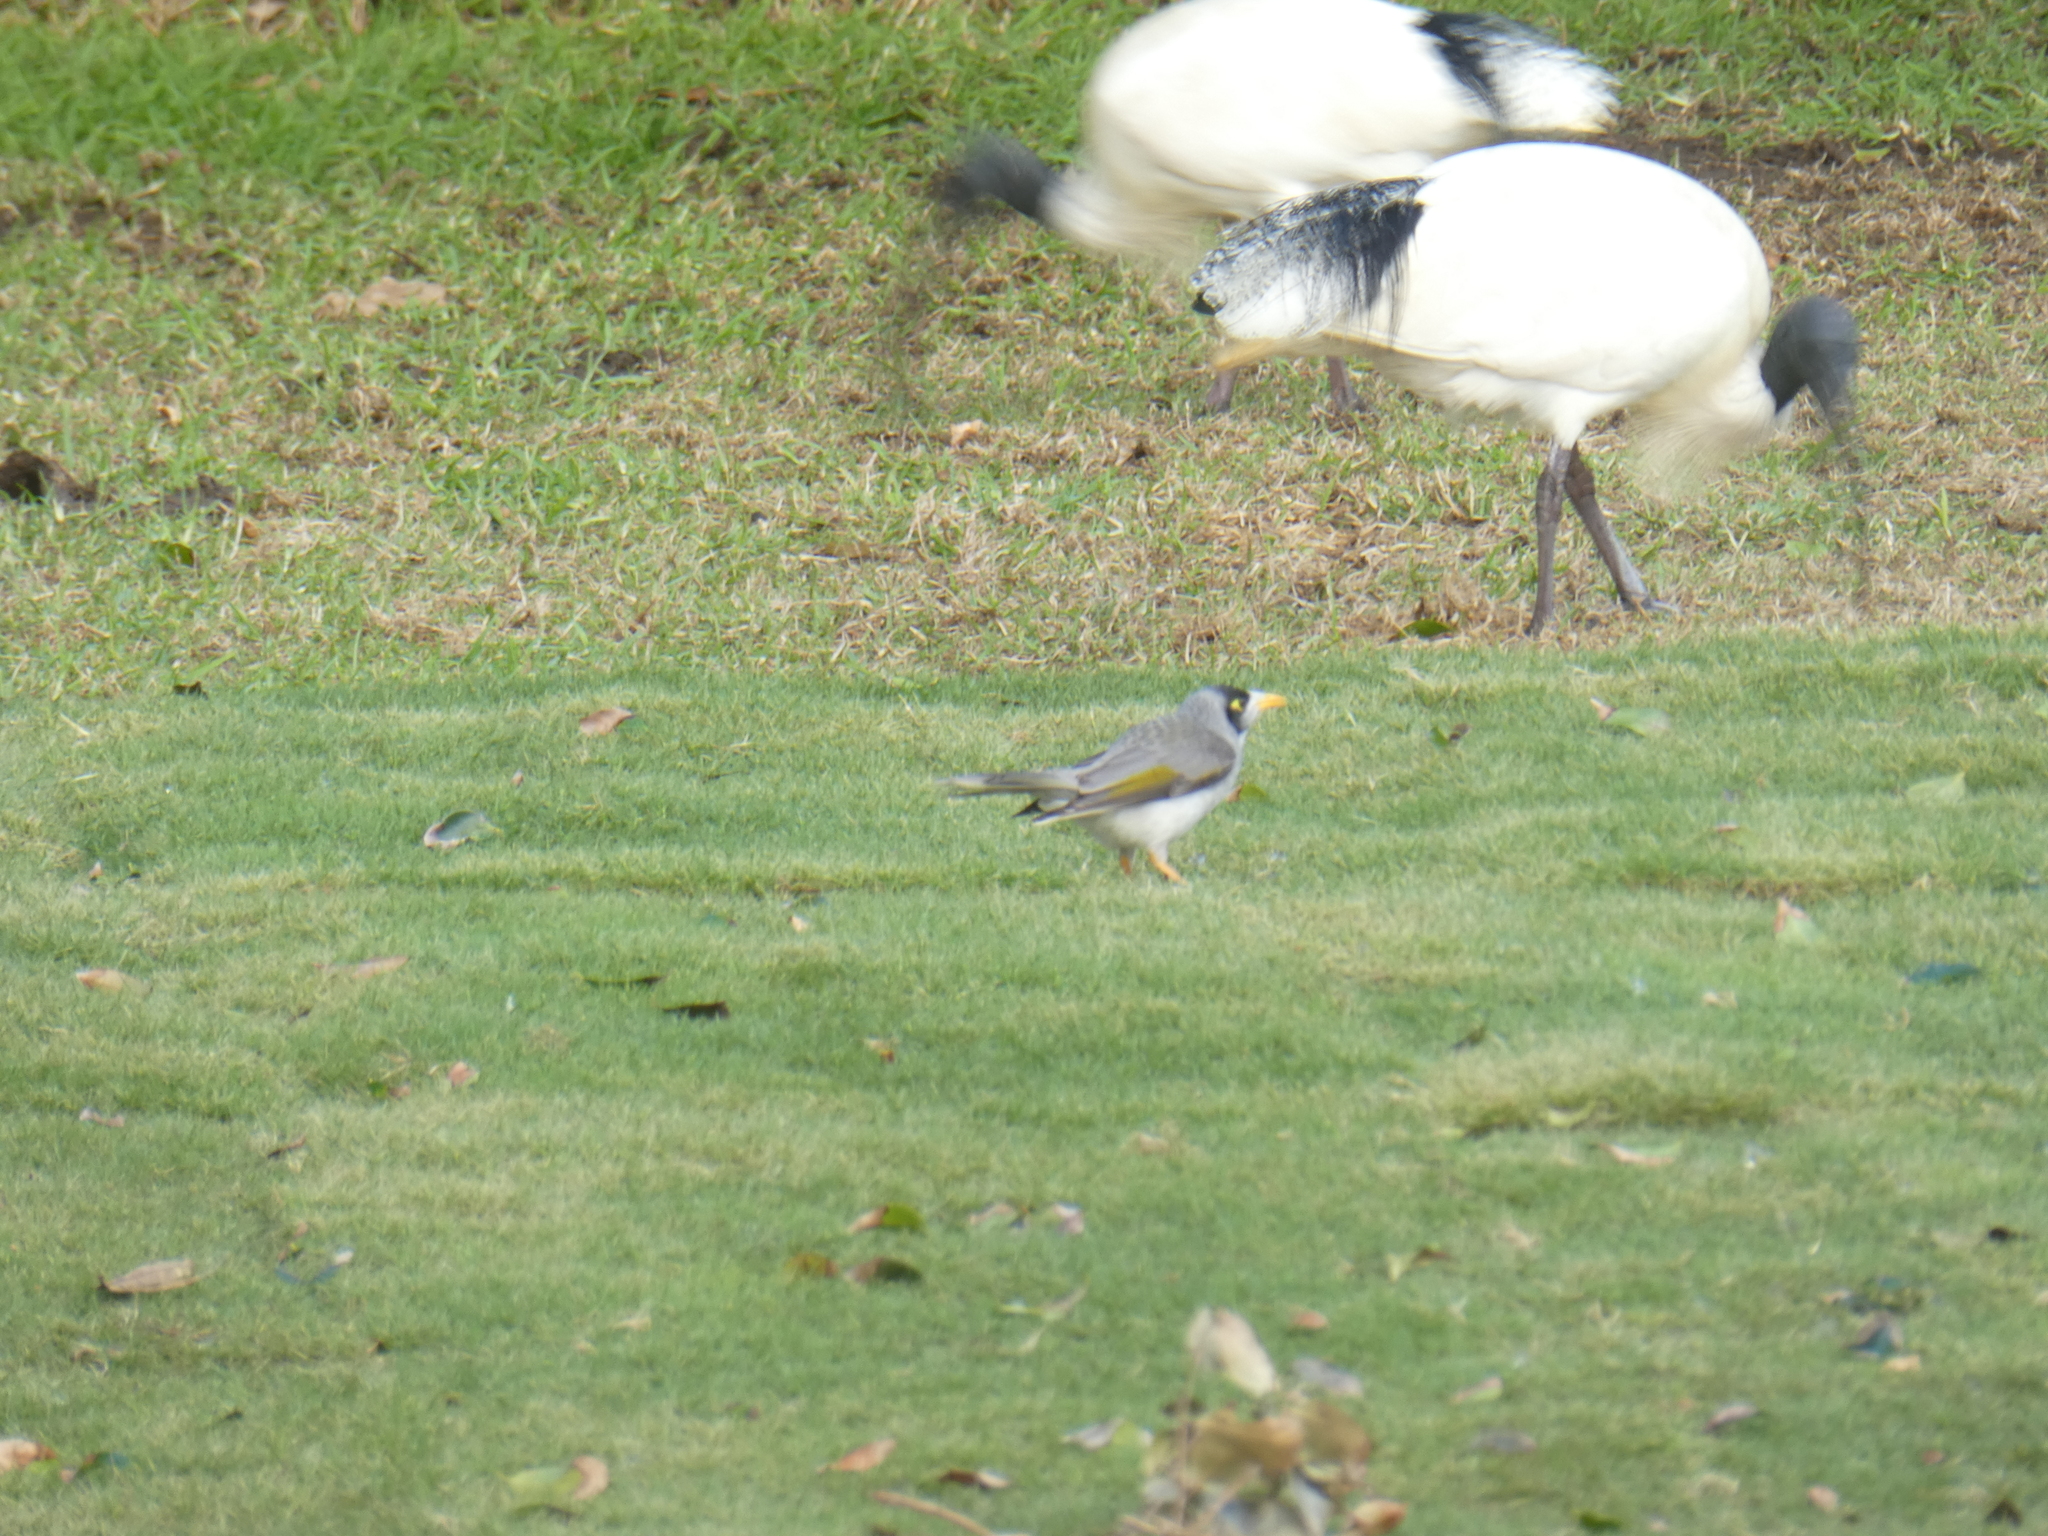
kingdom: Animalia
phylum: Chordata
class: Aves
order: Passeriformes
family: Meliphagidae
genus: Manorina
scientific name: Manorina melanocephala
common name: Noisy miner
